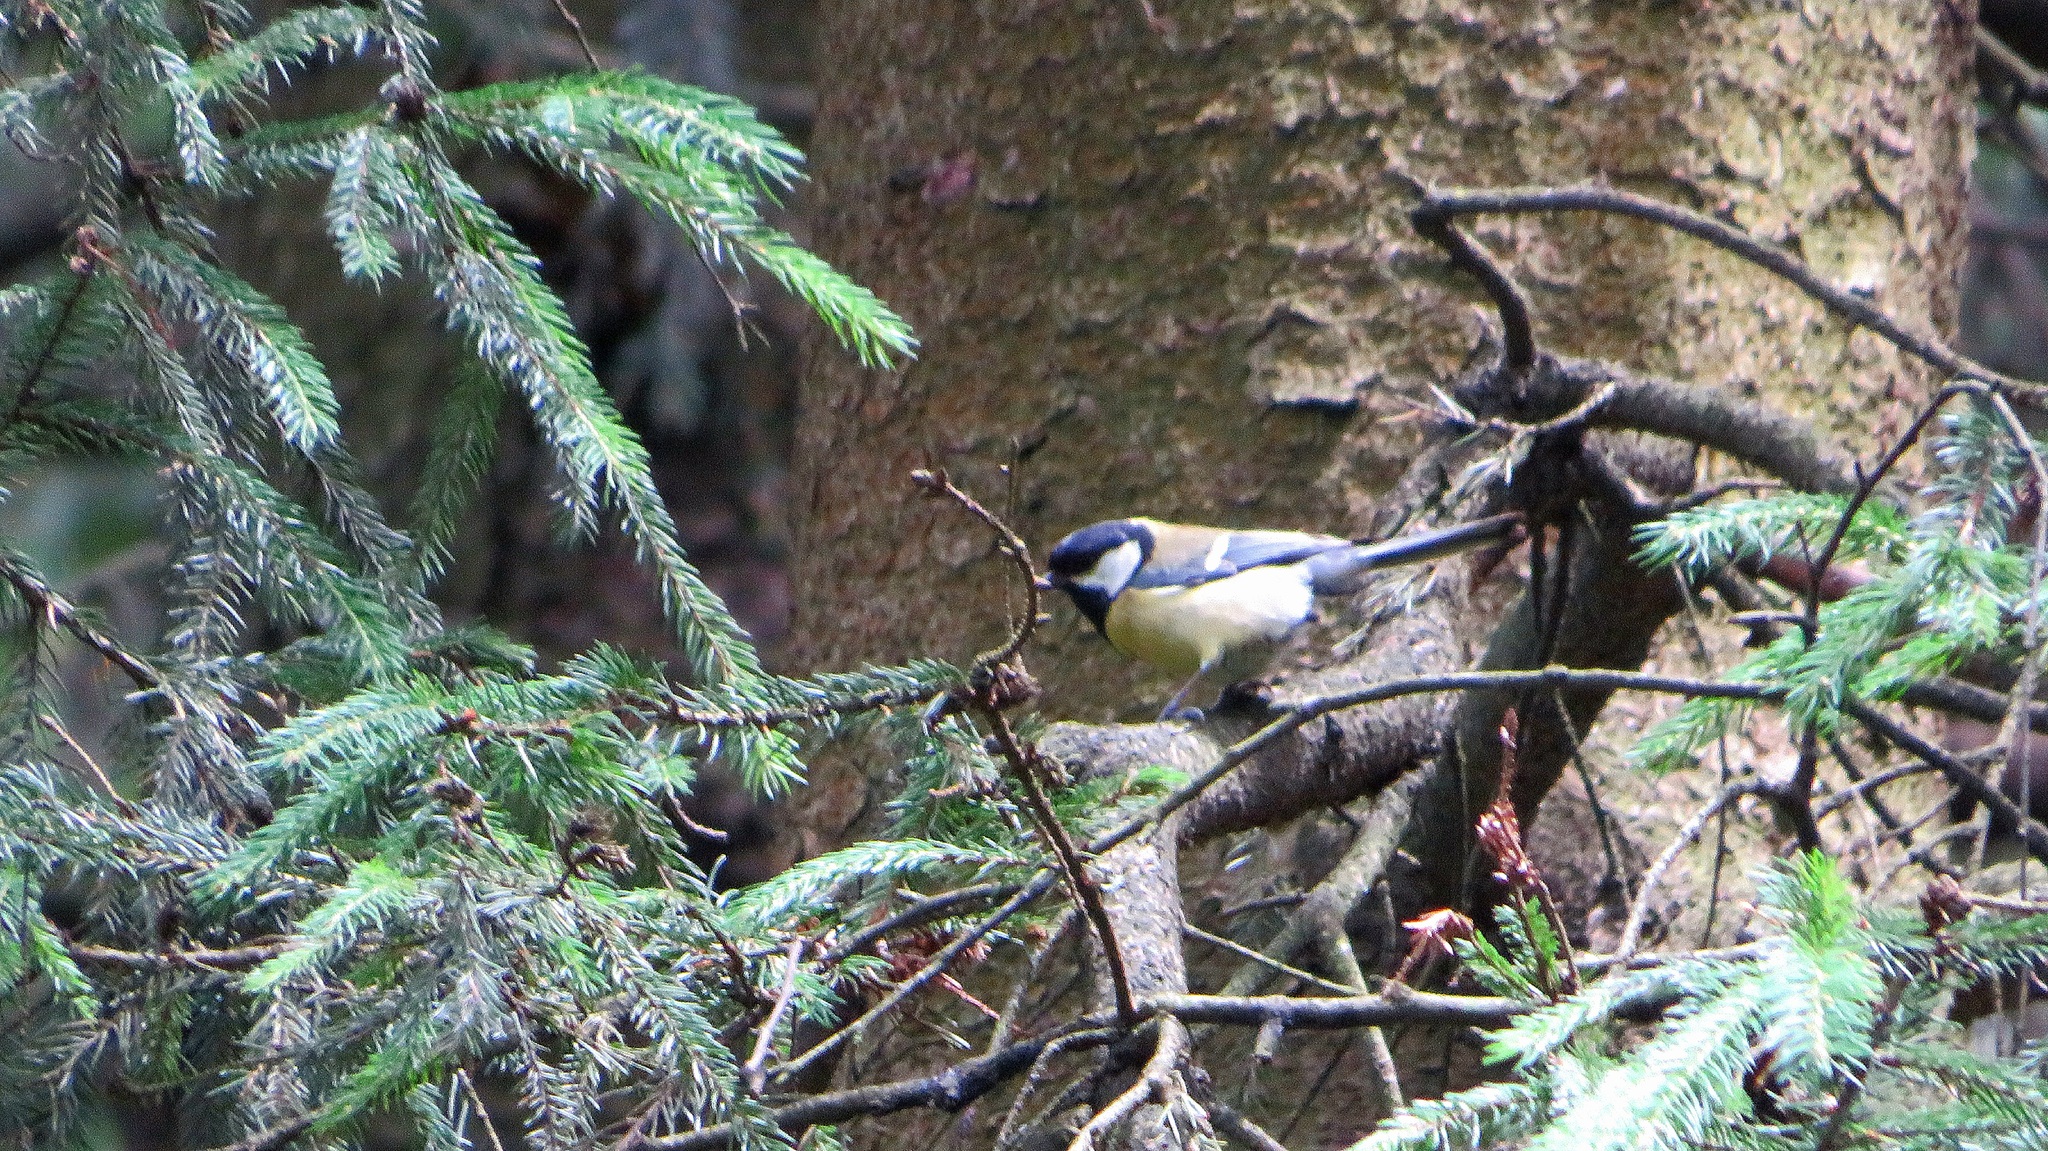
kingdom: Animalia
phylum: Chordata
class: Aves
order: Passeriformes
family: Paridae
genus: Parus
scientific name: Parus major
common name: Great tit
